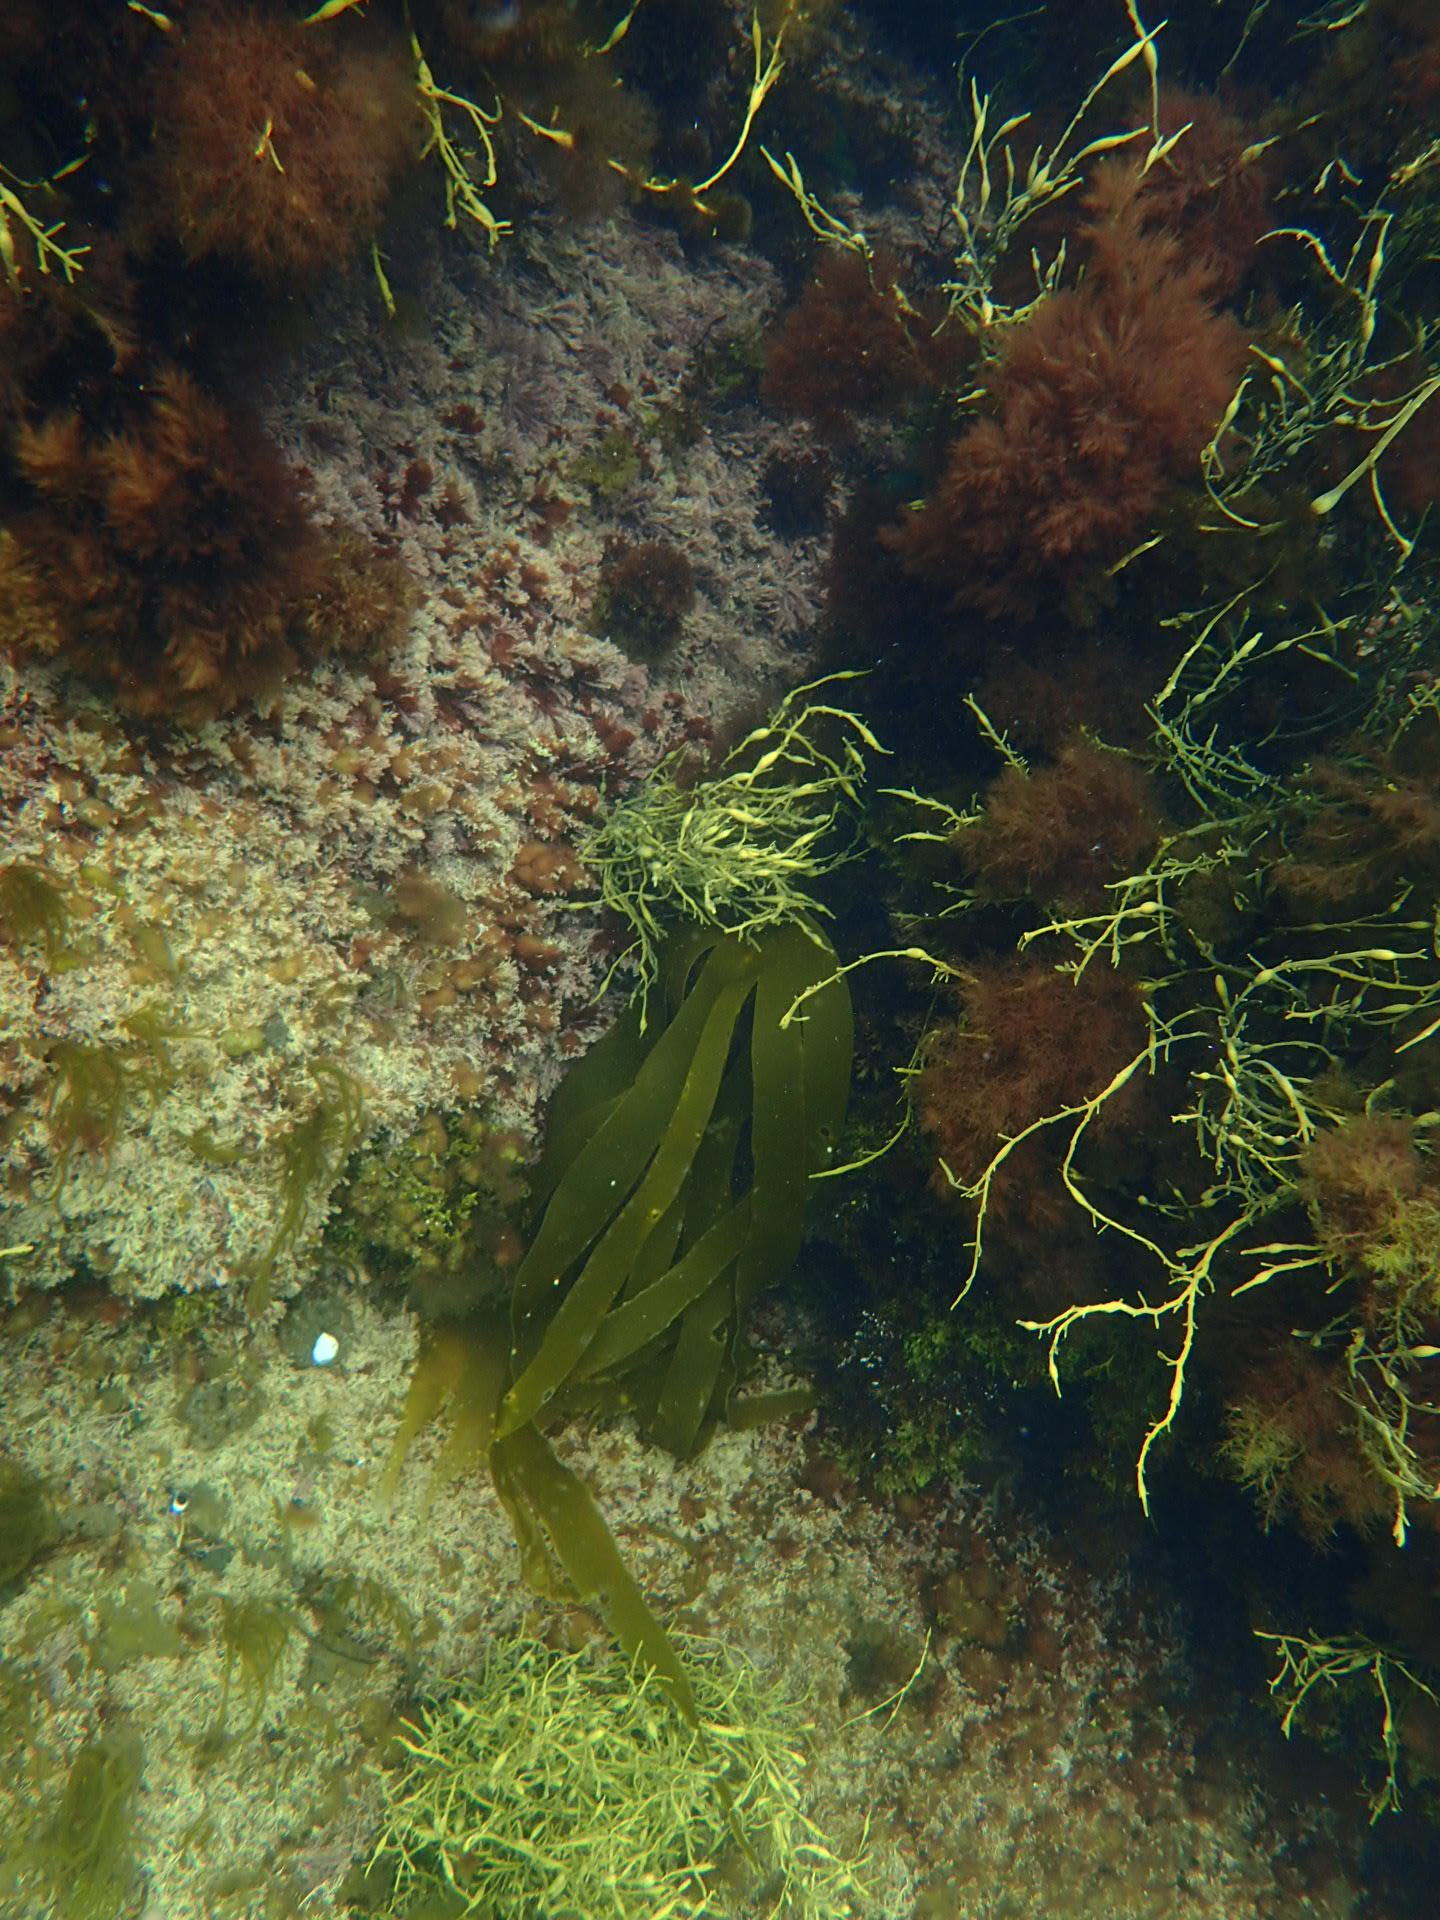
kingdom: Chromista
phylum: Ochrophyta
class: Phaeophyceae
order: Laminariales
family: Laminariaceae
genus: Laminaria
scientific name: Laminaria digitata
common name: Oarweed
